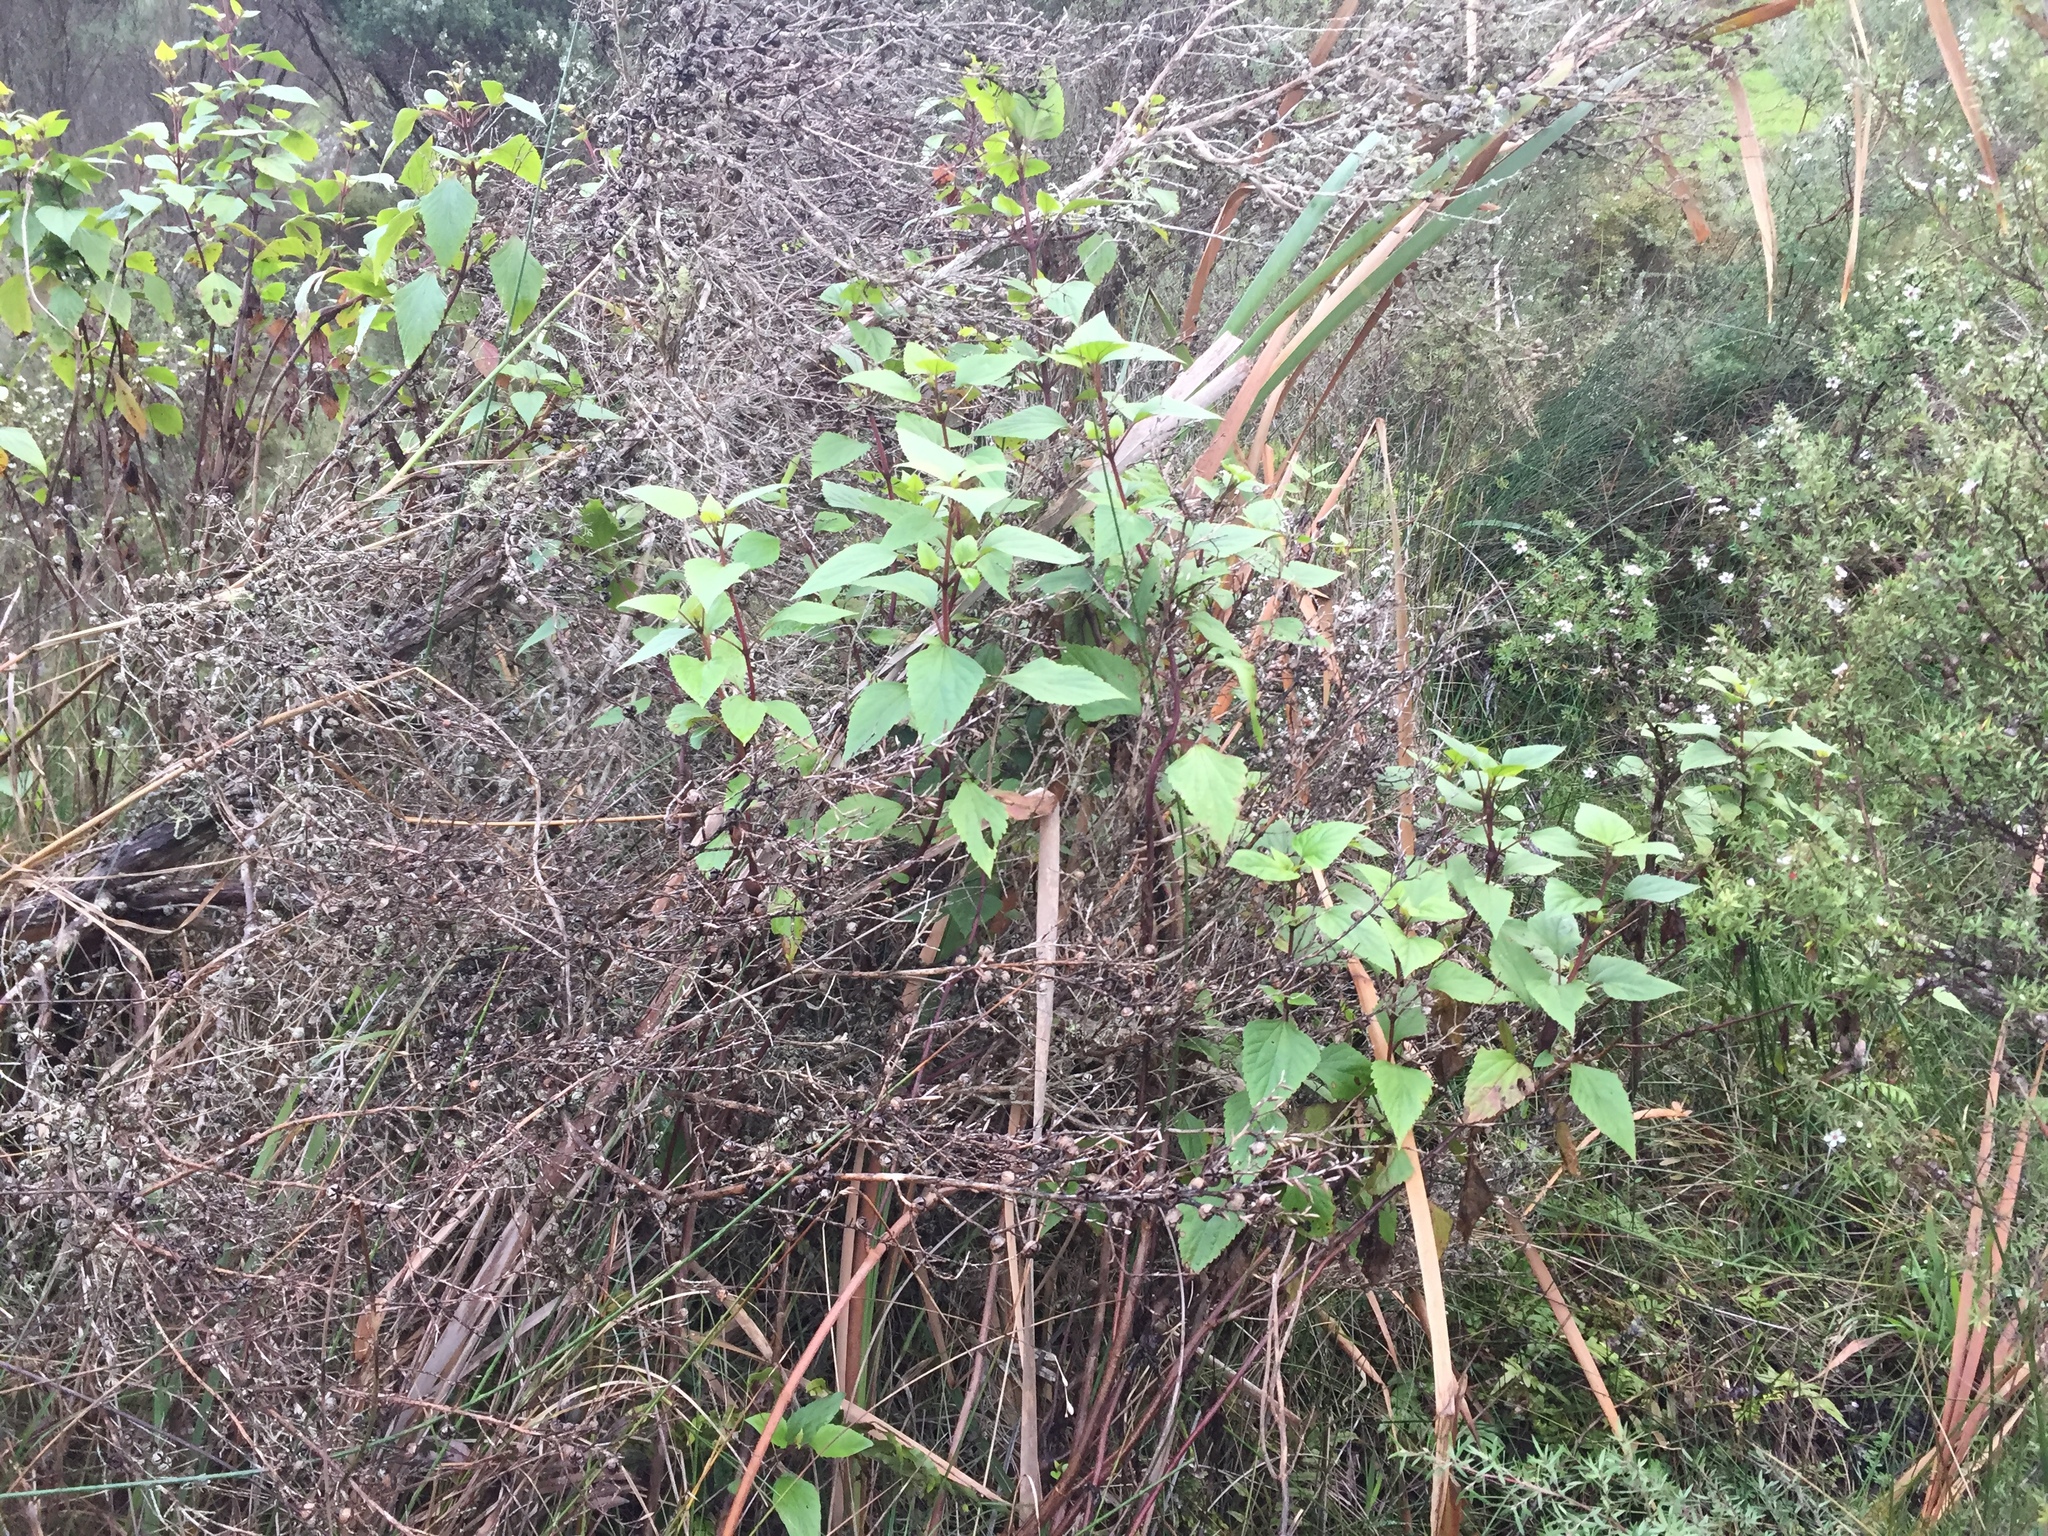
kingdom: Plantae
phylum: Tracheophyta
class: Magnoliopsida
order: Asterales
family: Asteraceae
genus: Ageratina
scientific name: Ageratina adenophora
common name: Sticky snakeroot
